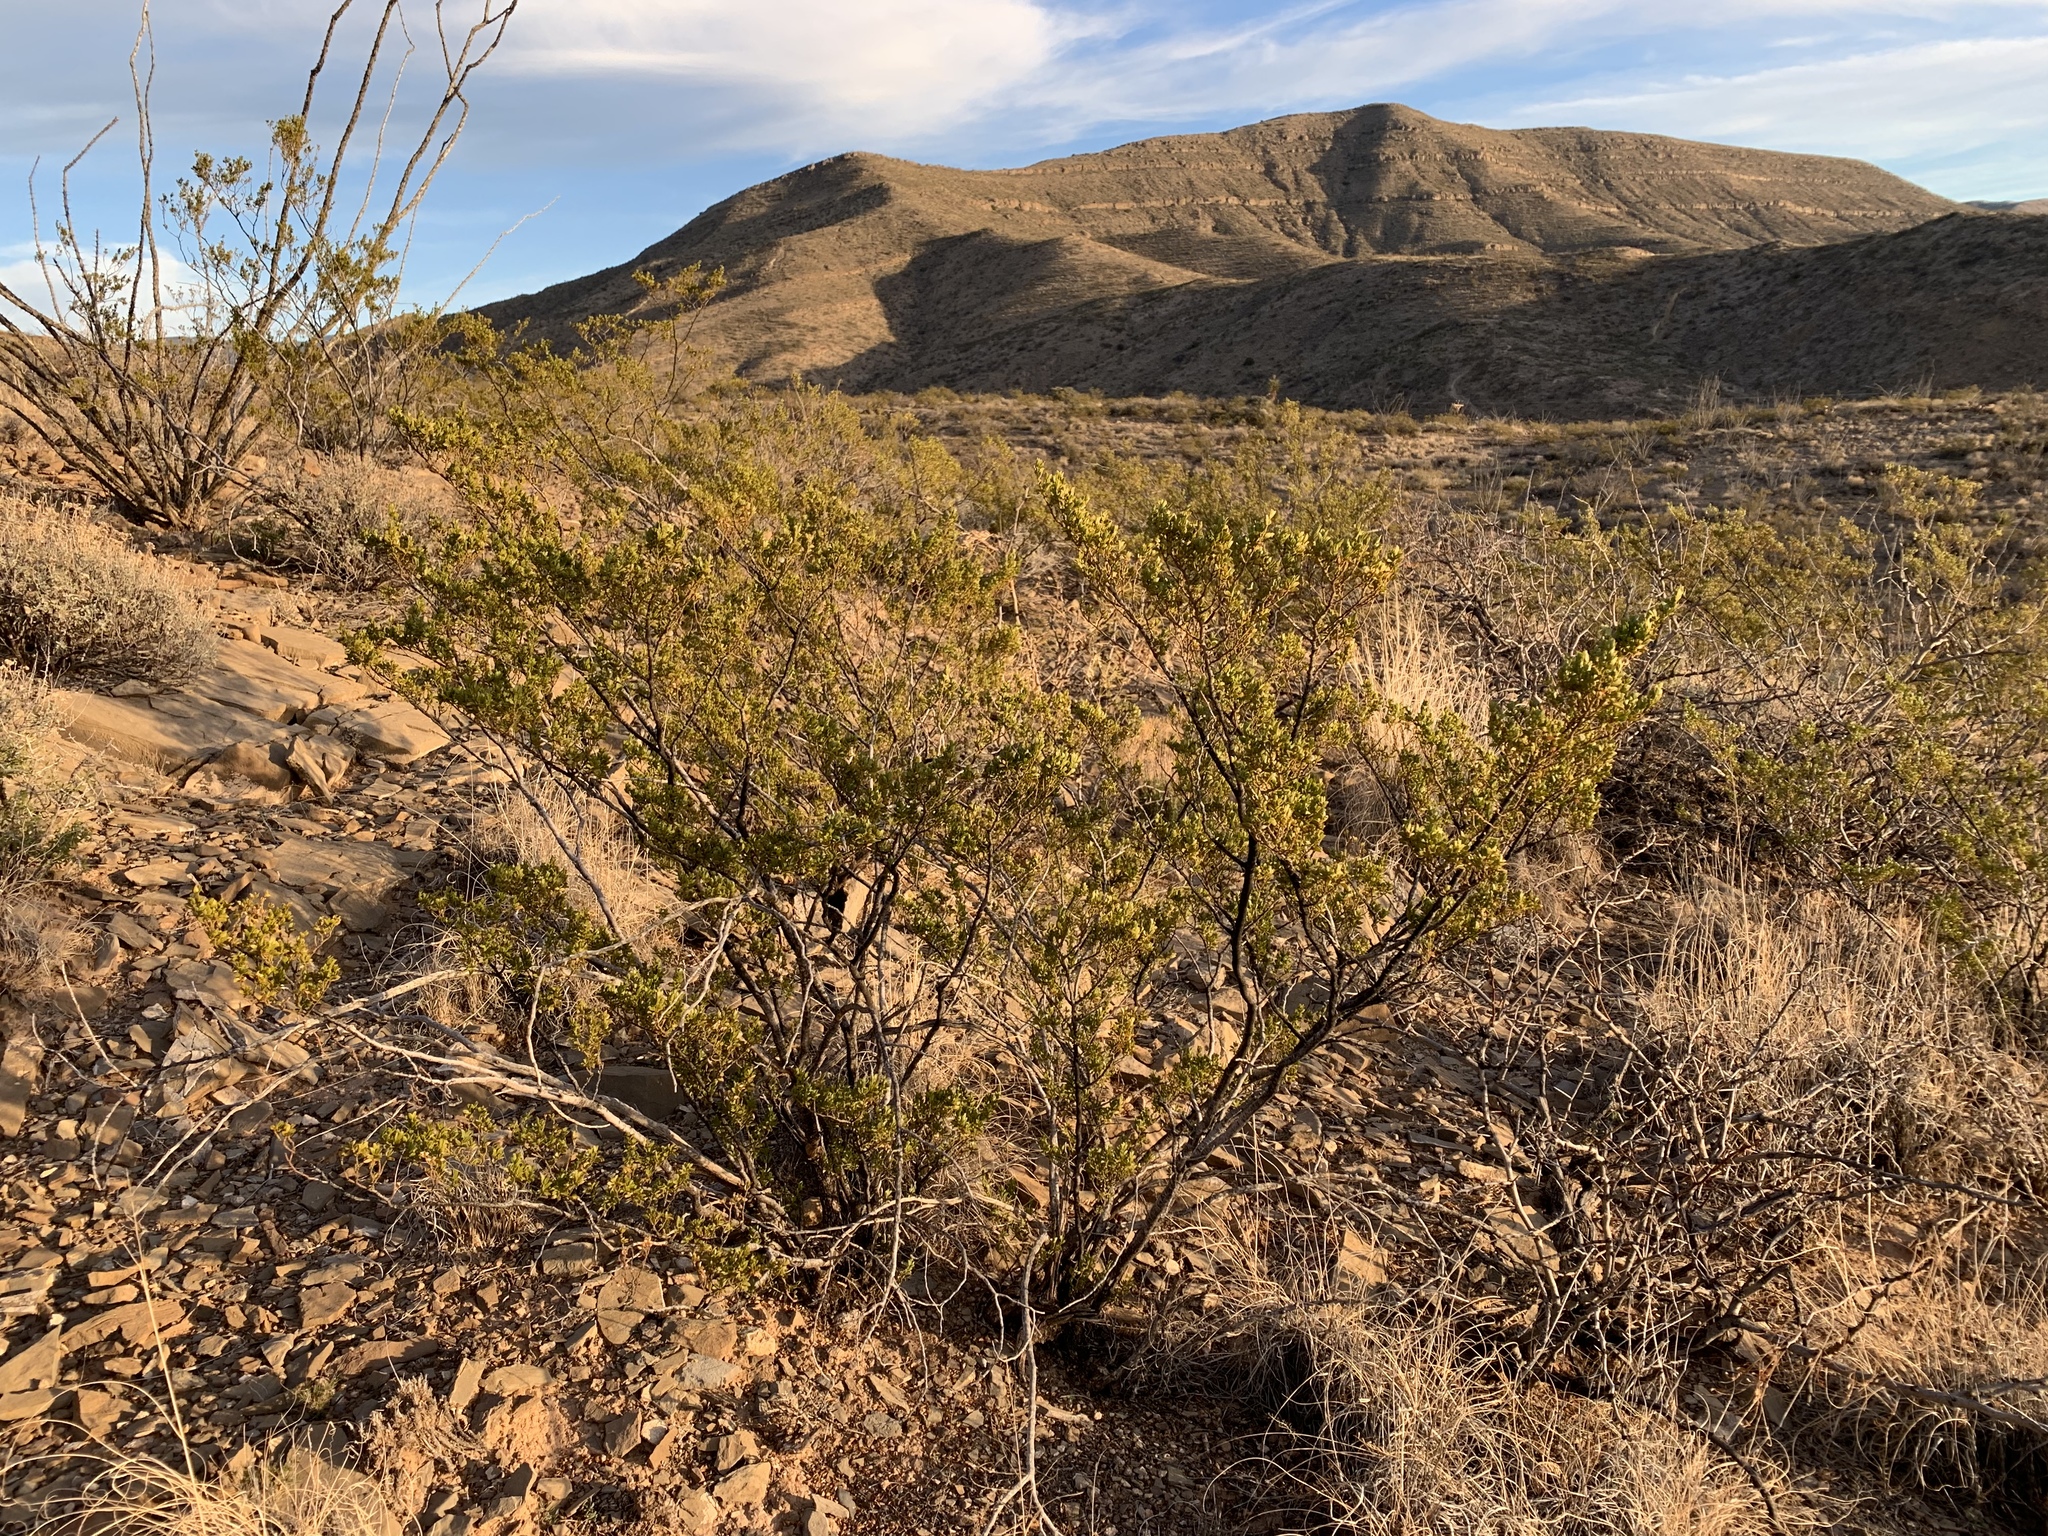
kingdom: Plantae
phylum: Tracheophyta
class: Magnoliopsida
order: Zygophyllales
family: Zygophyllaceae
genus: Larrea
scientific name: Larrea tridentata
